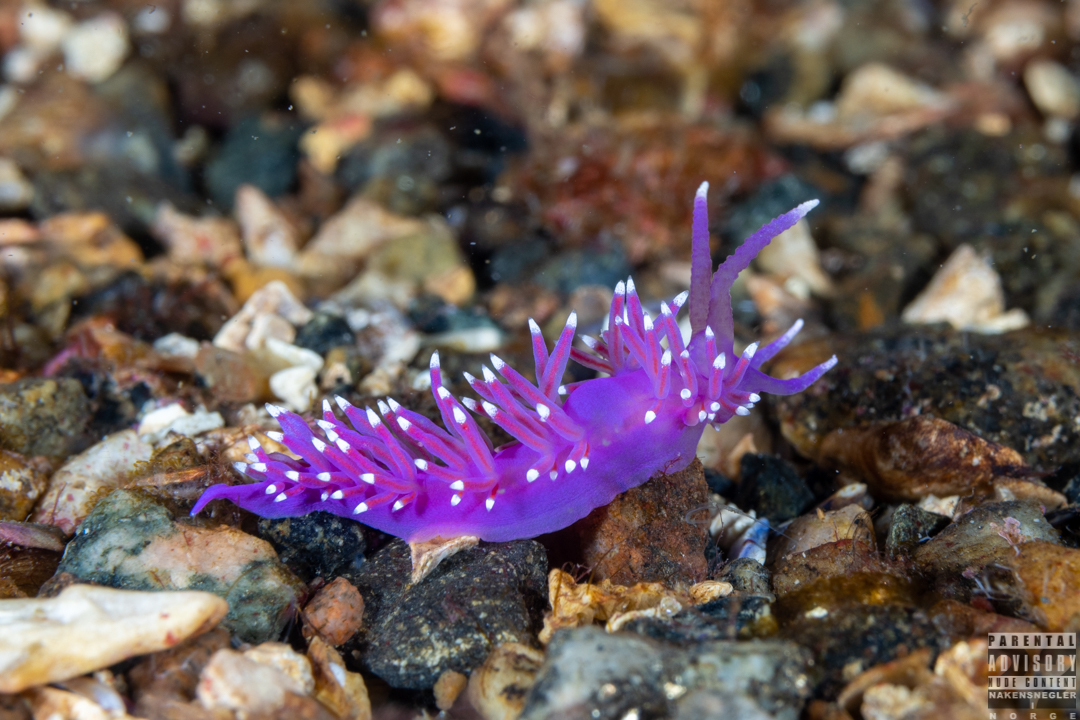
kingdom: Animalia
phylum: Mollusca
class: Gastropoda
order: Nudibranchia
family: Flabellinidae
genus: Edmundsella
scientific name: Edmundsella pedata
